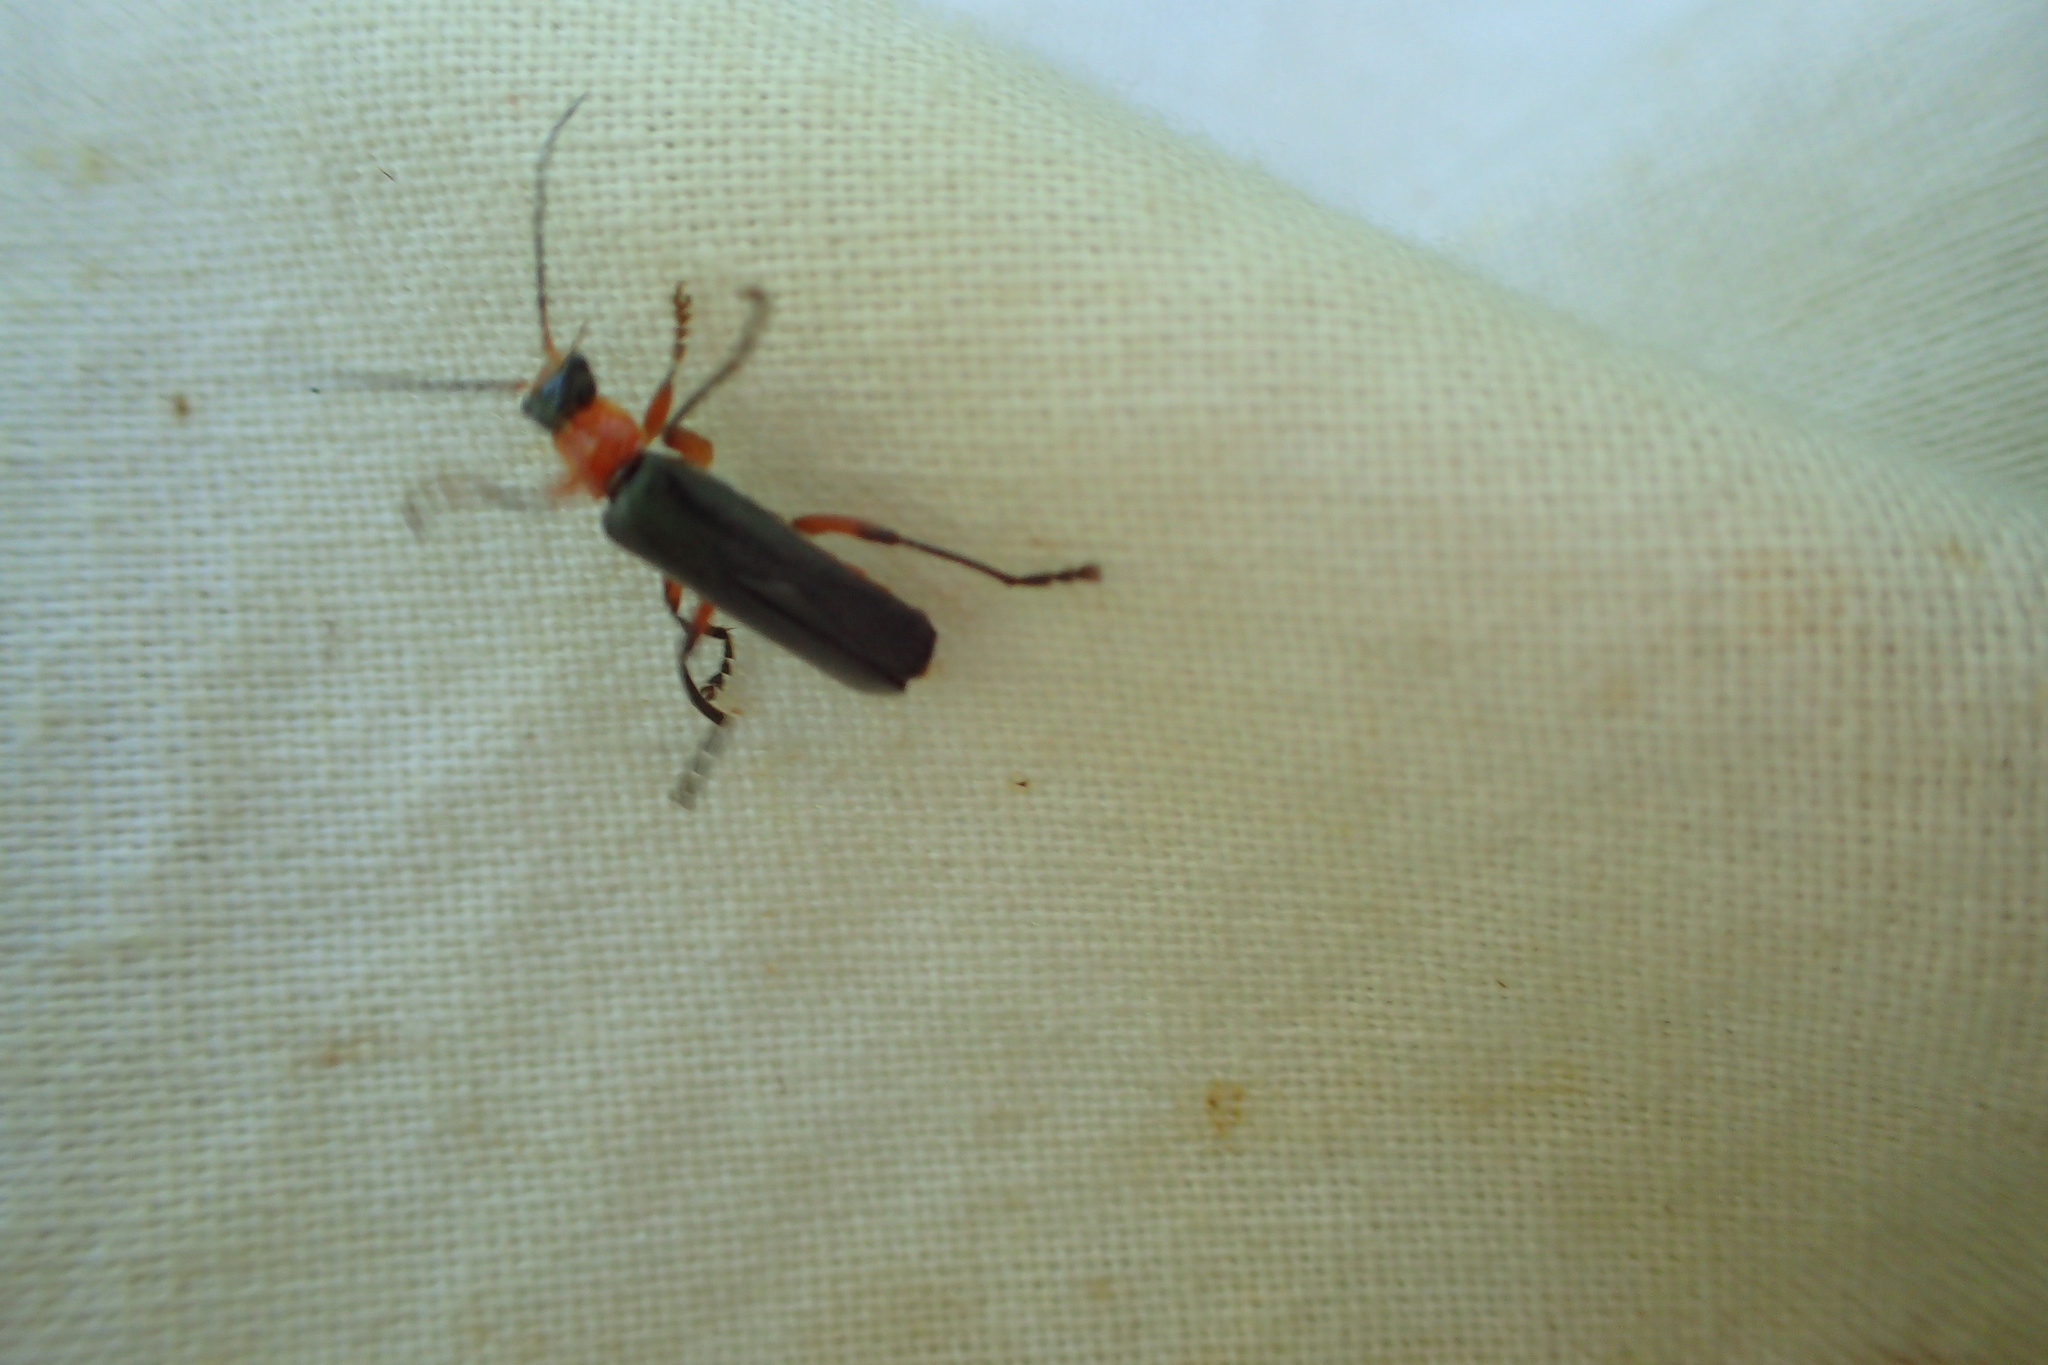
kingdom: Animalia
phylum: Arthropoda
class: Insecta
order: Coleoptera
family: Cantharidae
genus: Cantharis
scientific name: Cantharis pellucida
